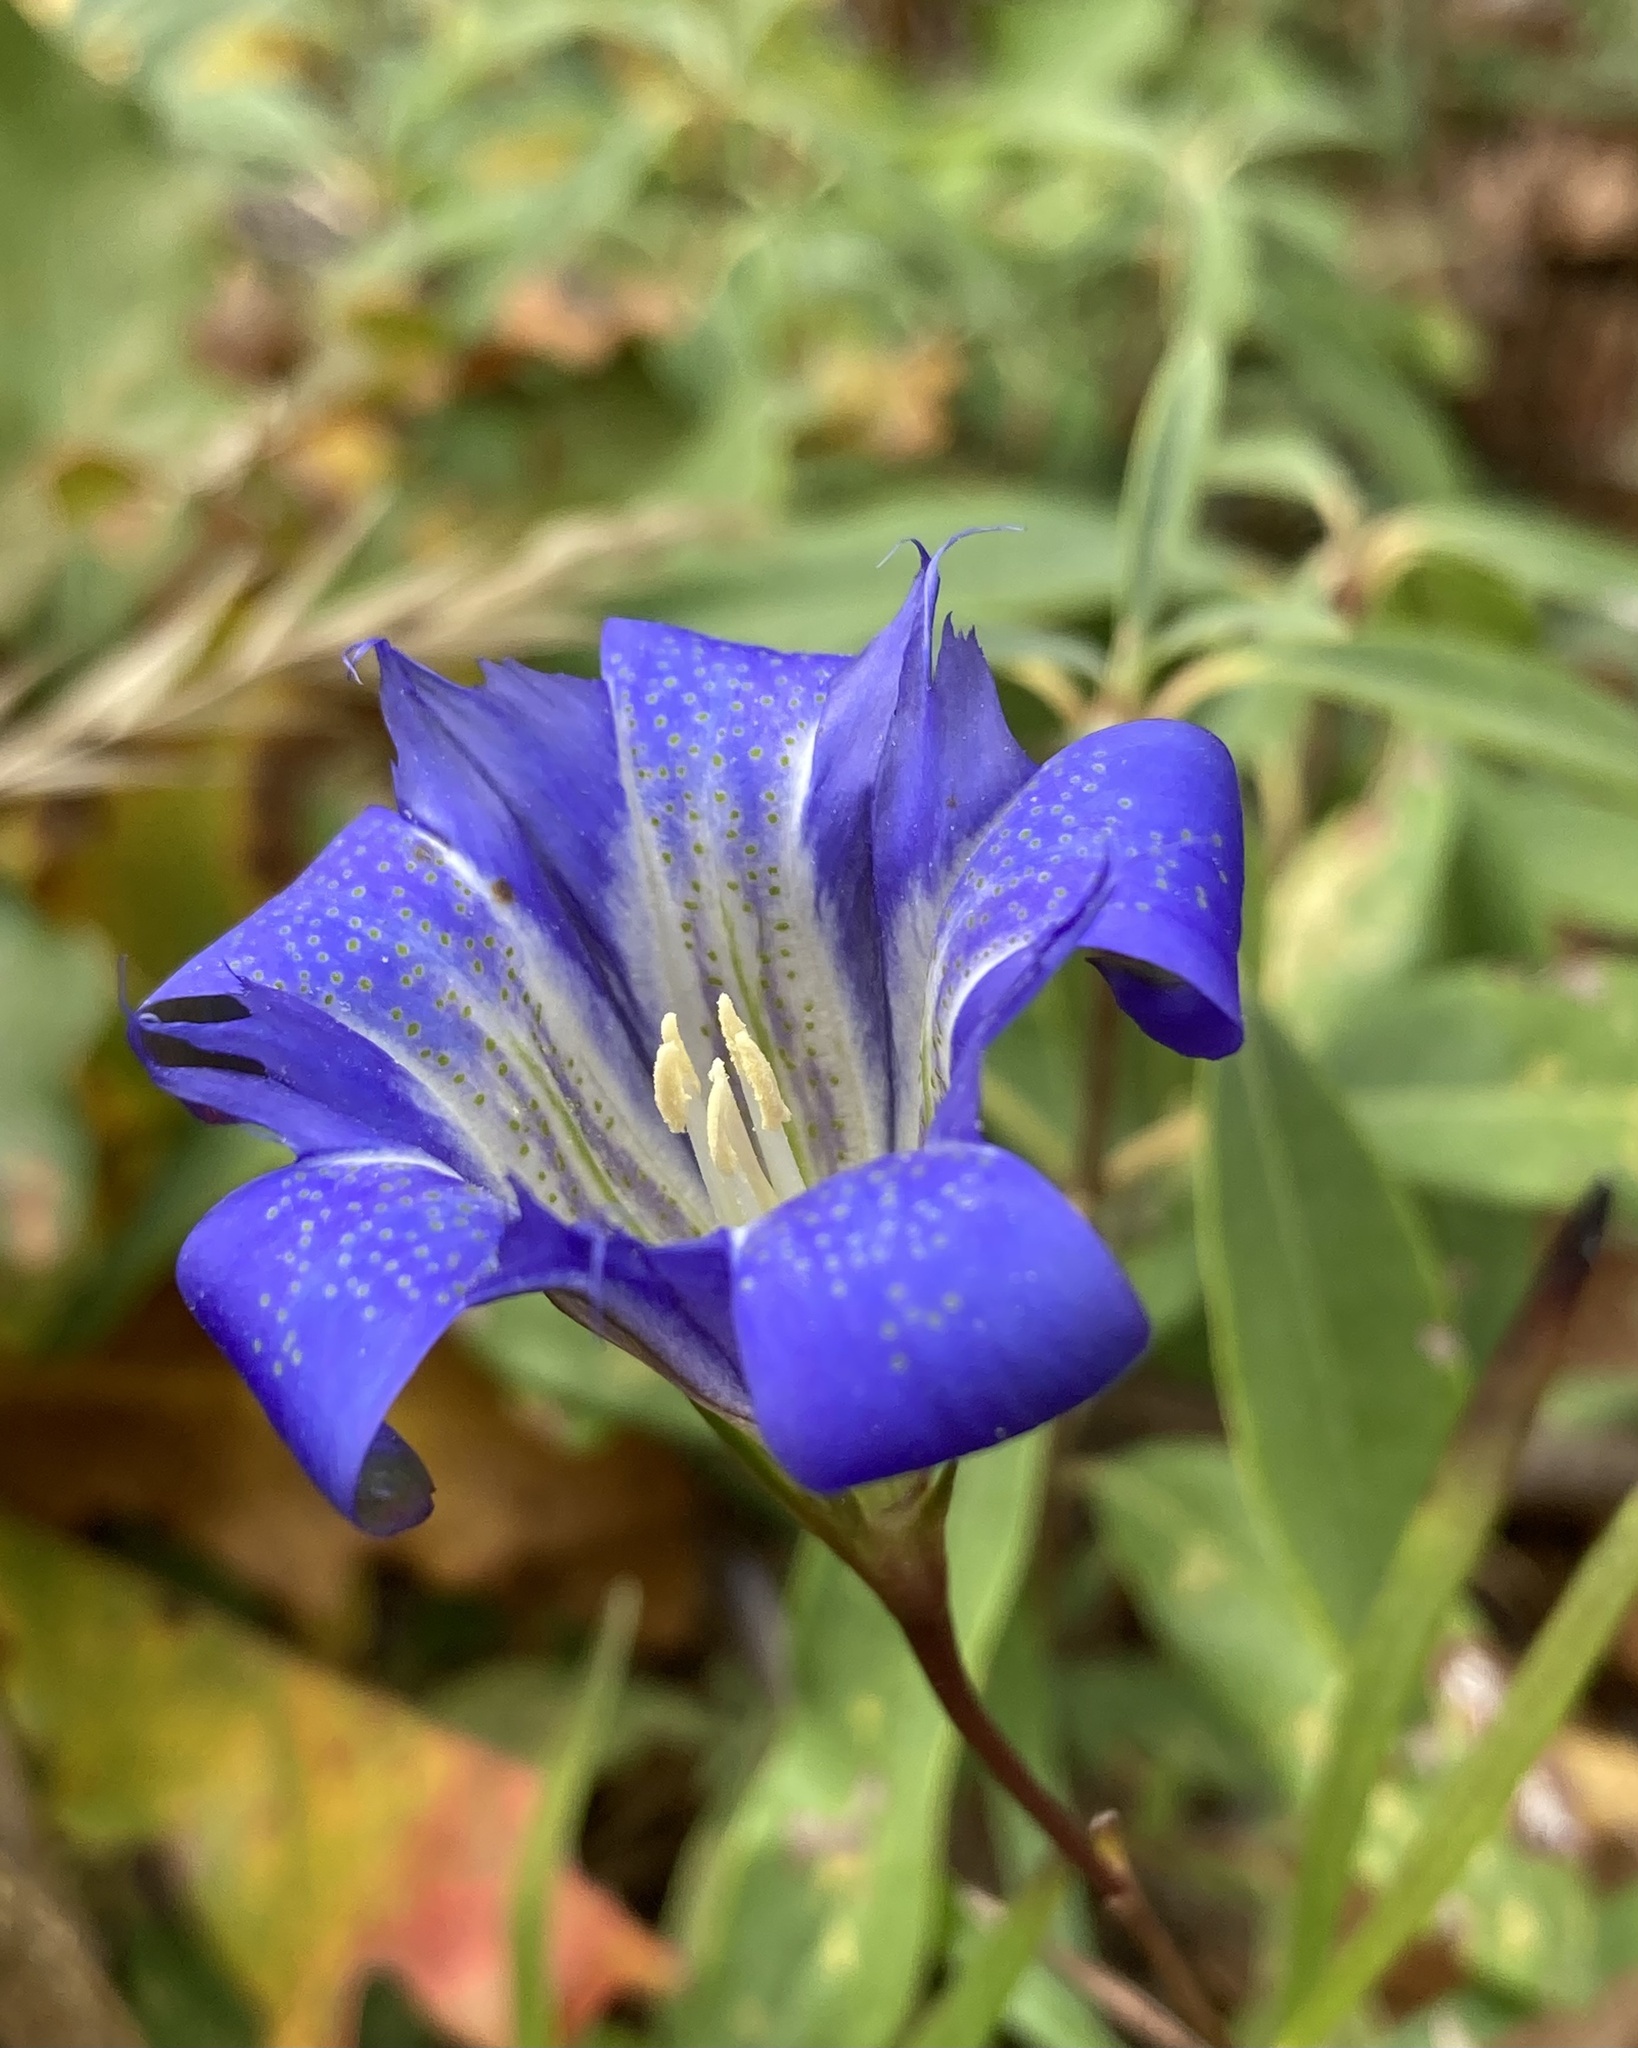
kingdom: Plantae
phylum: Tracheophyta
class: Magnoliopsida
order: Gentianales
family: Gentianaceae
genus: Gentiana
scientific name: Gentiana autumnalis
